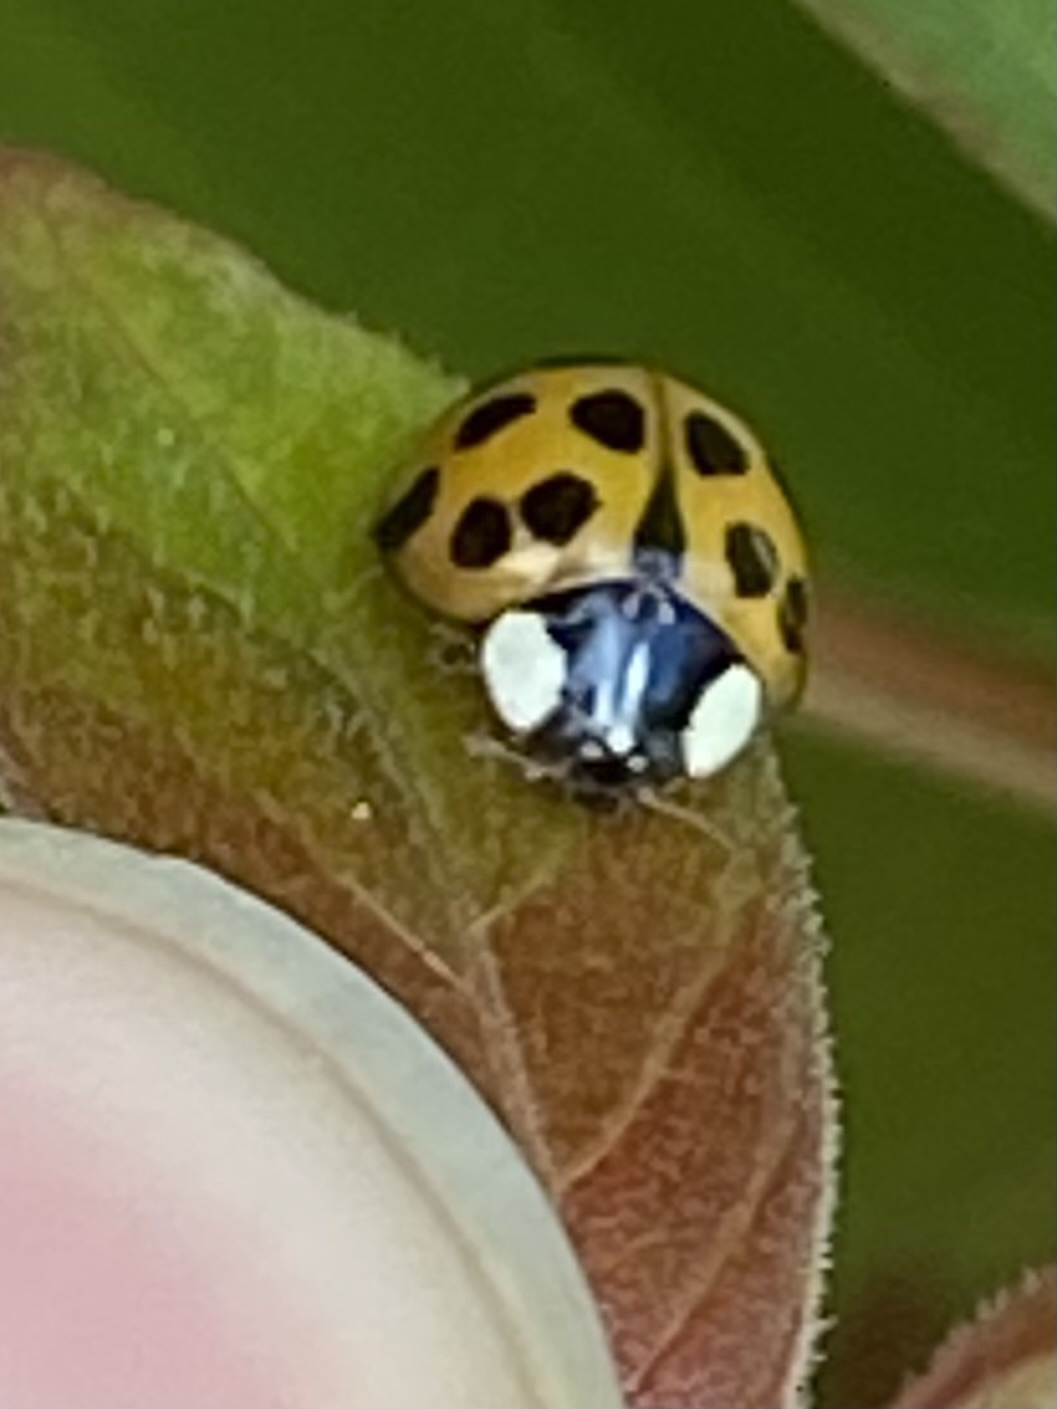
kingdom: Animalia
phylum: Arthropoda
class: Insecta
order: Coleoptera
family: Coccinellidae
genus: Harmonia
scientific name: Harmonia axyridis
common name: Harlequin ladybird
